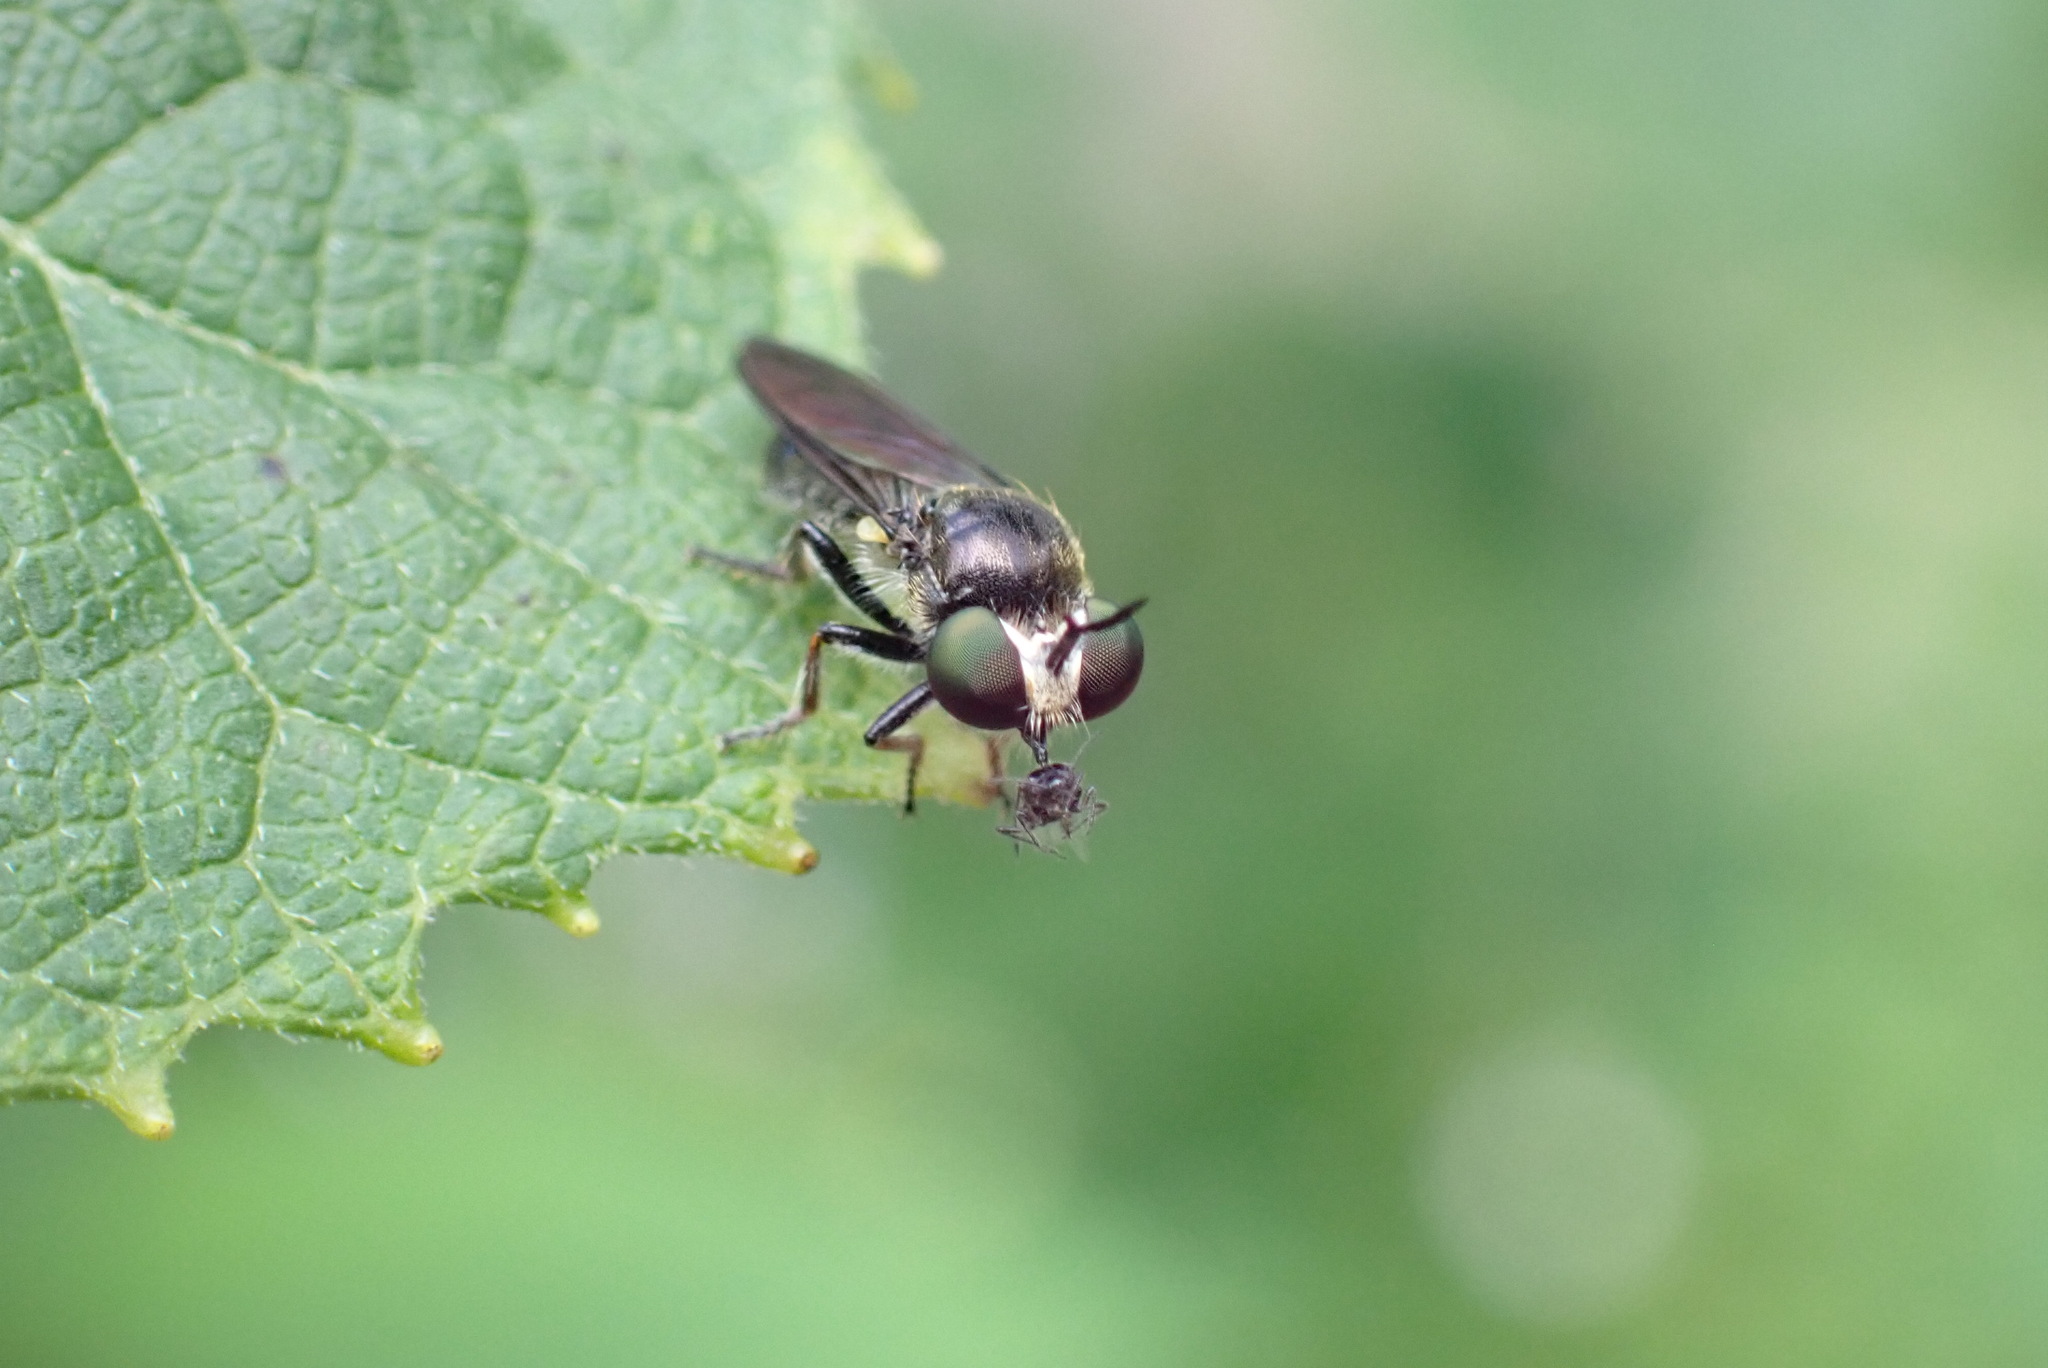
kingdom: Animalia
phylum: Arthropoda
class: Insecta
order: Diptera
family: Asilidae
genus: Cerotainia
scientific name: Cerotainia albipilosa
